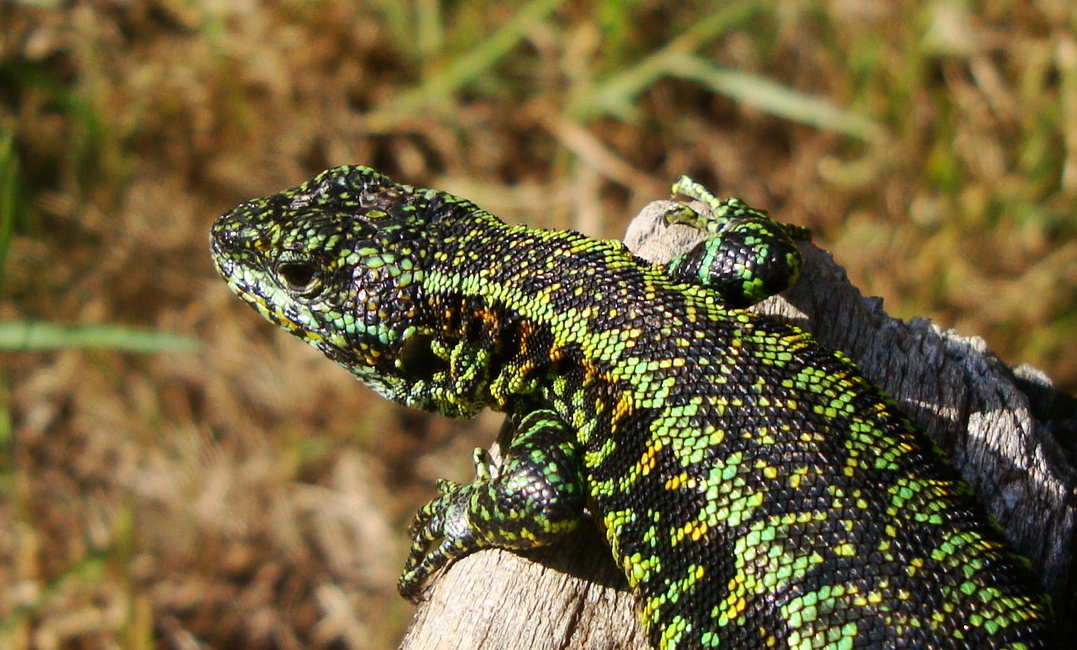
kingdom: Animalia
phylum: Chordata
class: Squamata
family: Liolaemidae
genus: Liolaemus
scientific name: Liolaemus pictus
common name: Painted tree iguana
